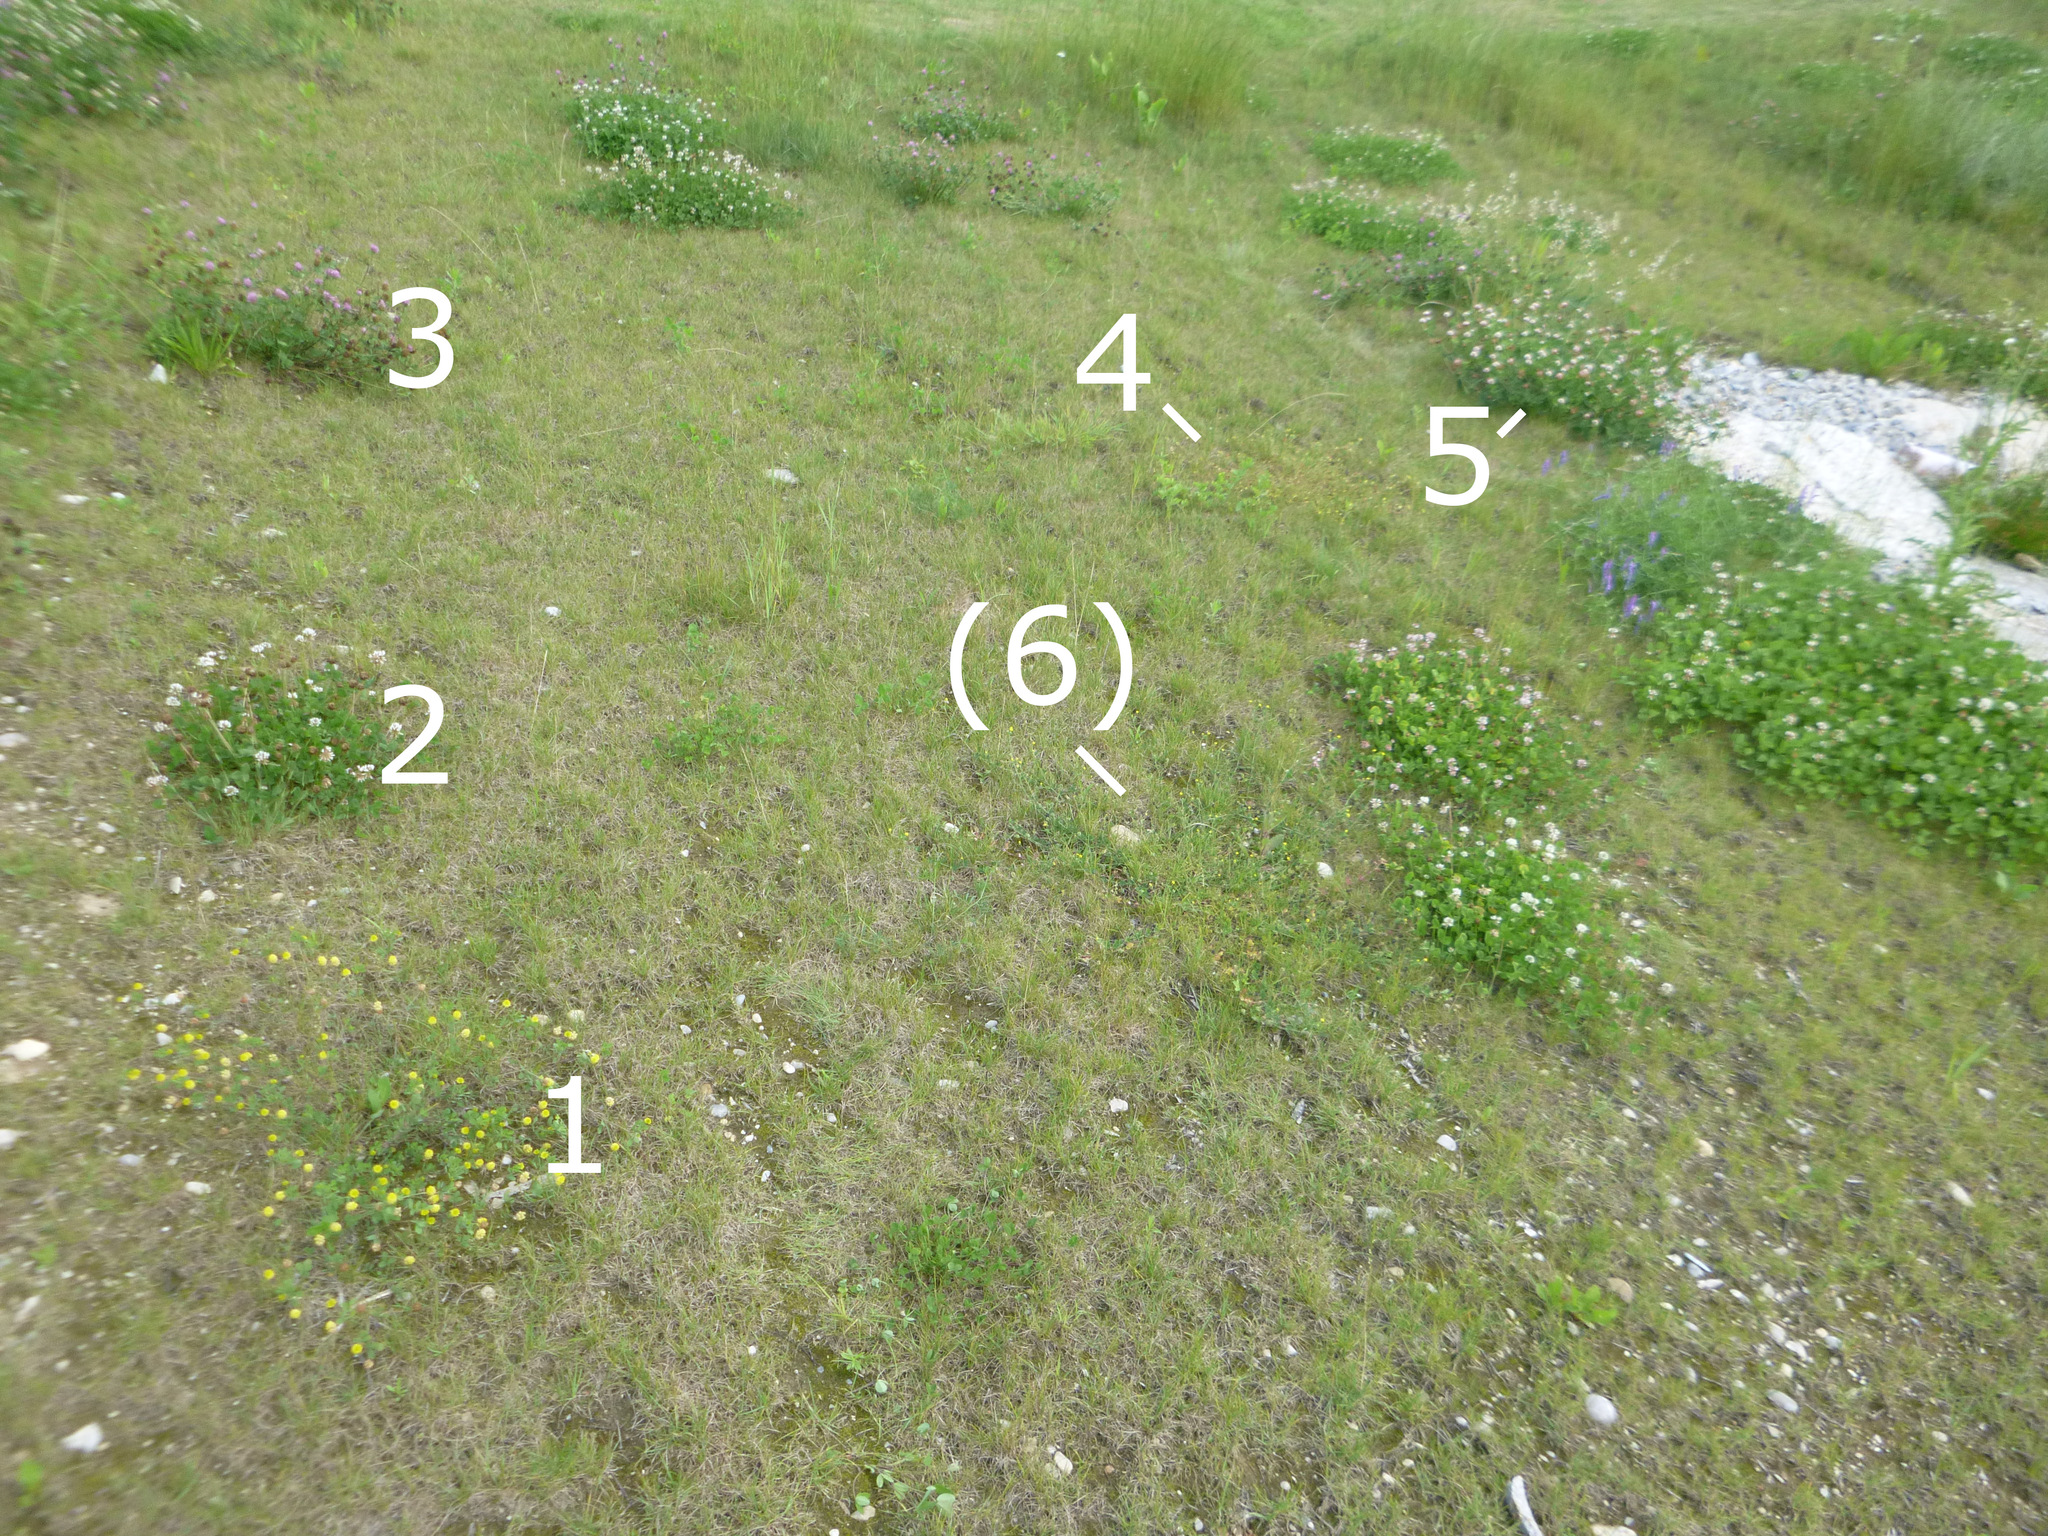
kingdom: Plantae
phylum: Tracheophyta
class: Magnoliopsida
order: Fabales
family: Fabaceae
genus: Trifolium
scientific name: Trifolium campestre
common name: Field clover
